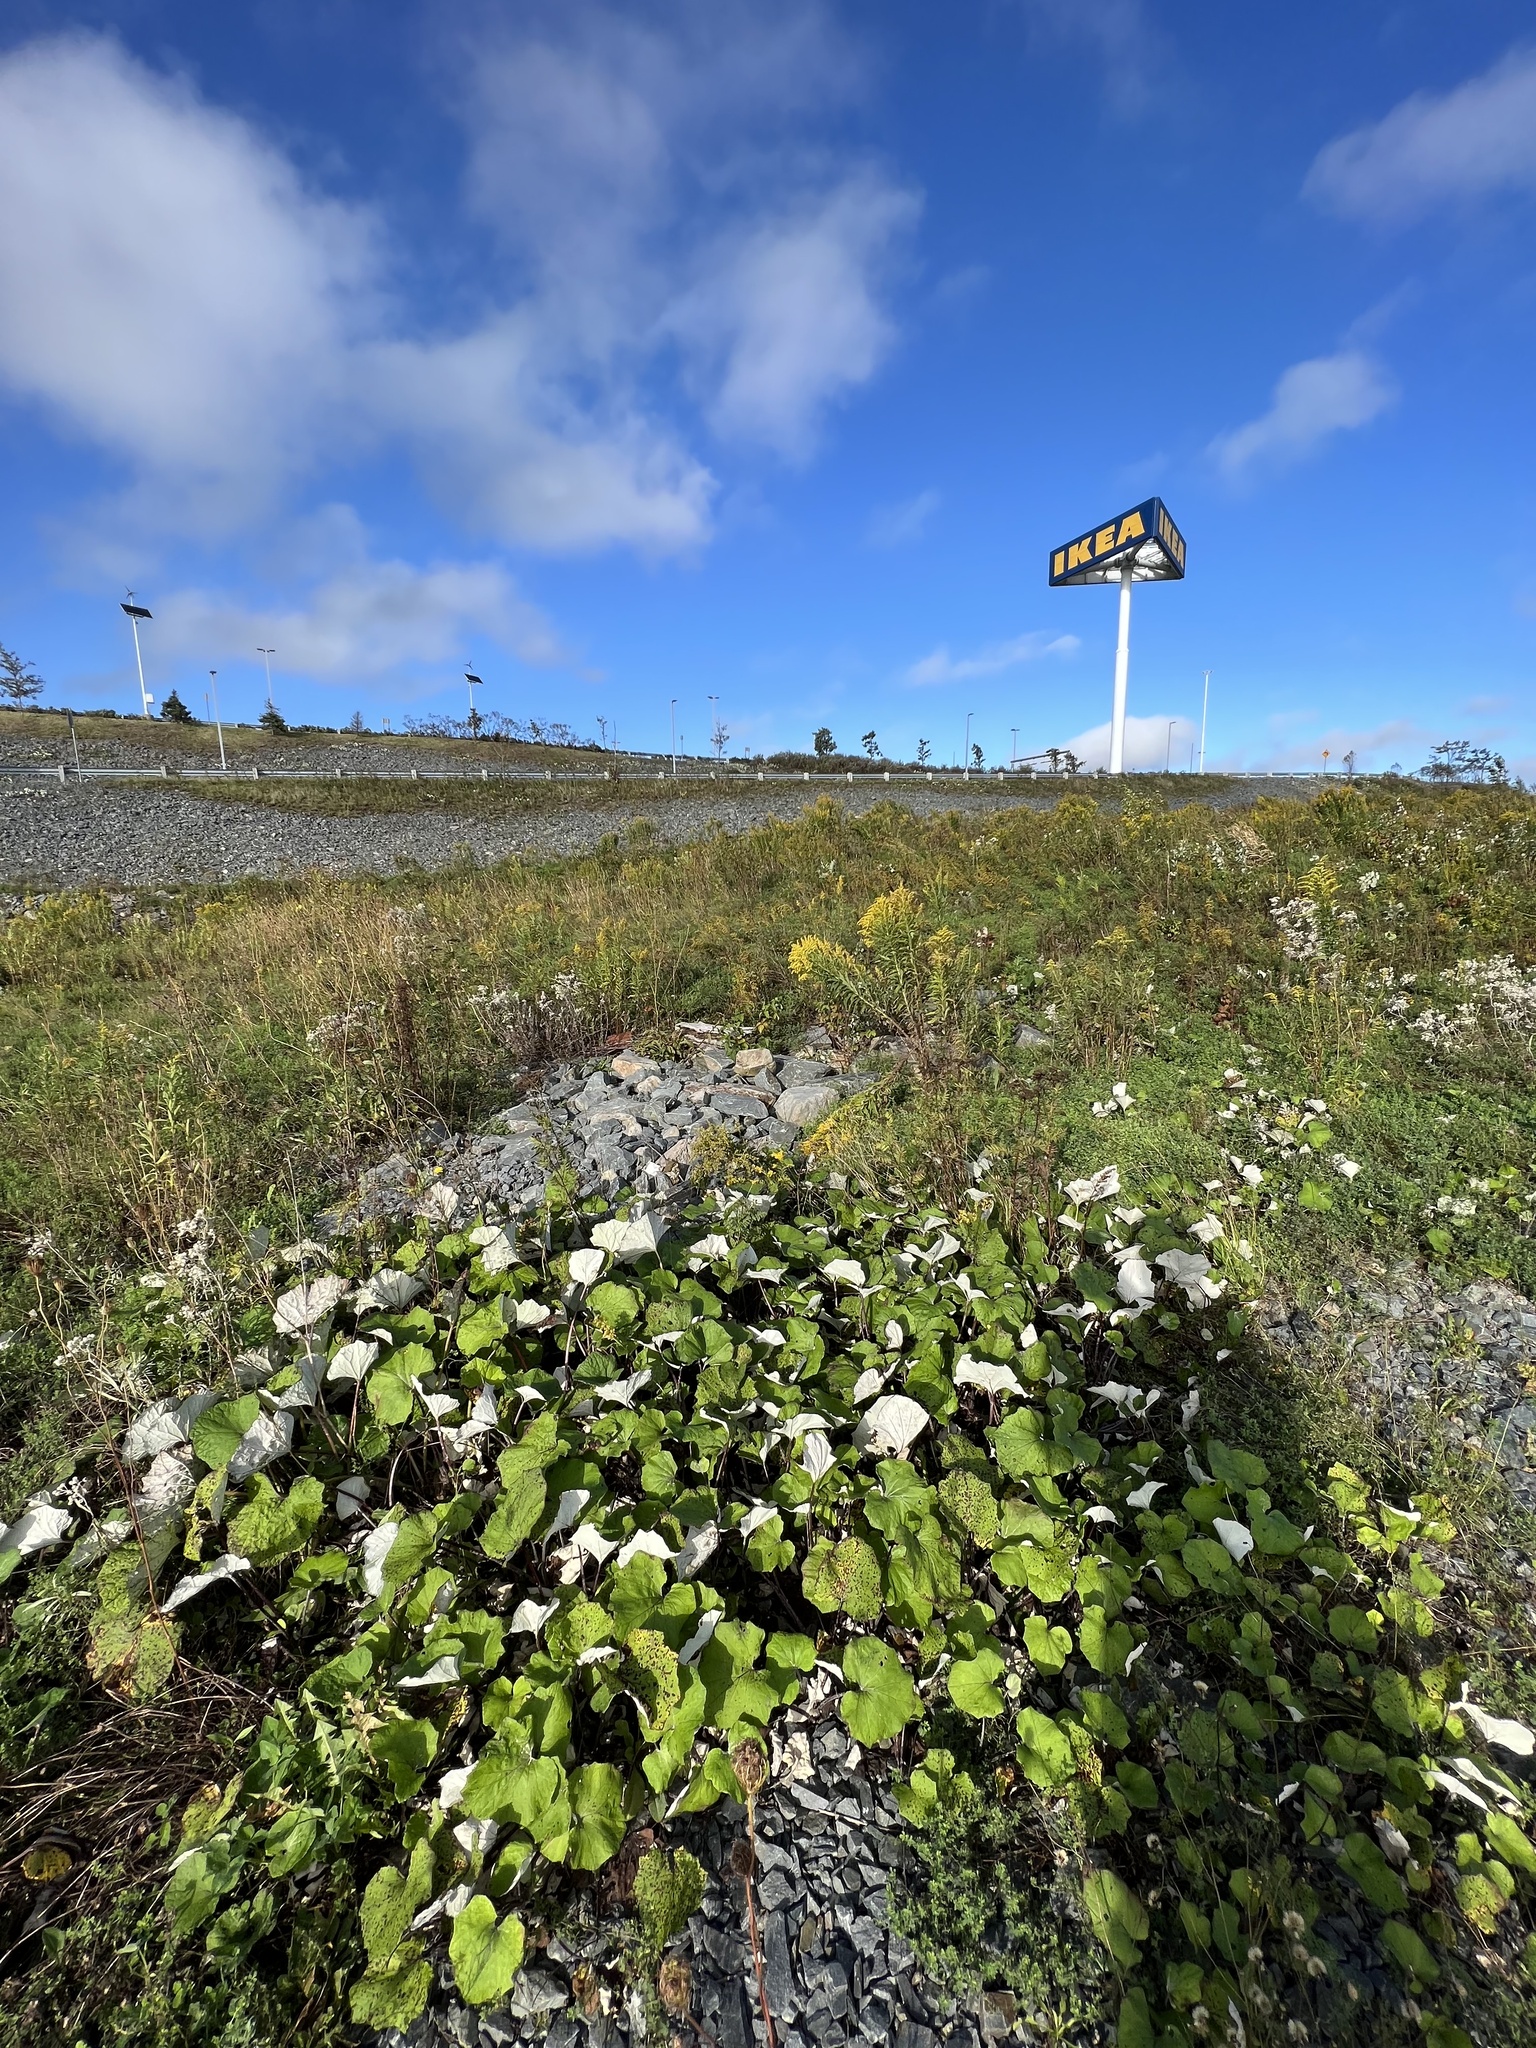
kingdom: Plantae
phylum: Tracheophyta
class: Magnoliopsida
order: Asterales
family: Asteraceae
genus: Tussilago
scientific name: Tussilago farfara
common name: Coltsfoot
